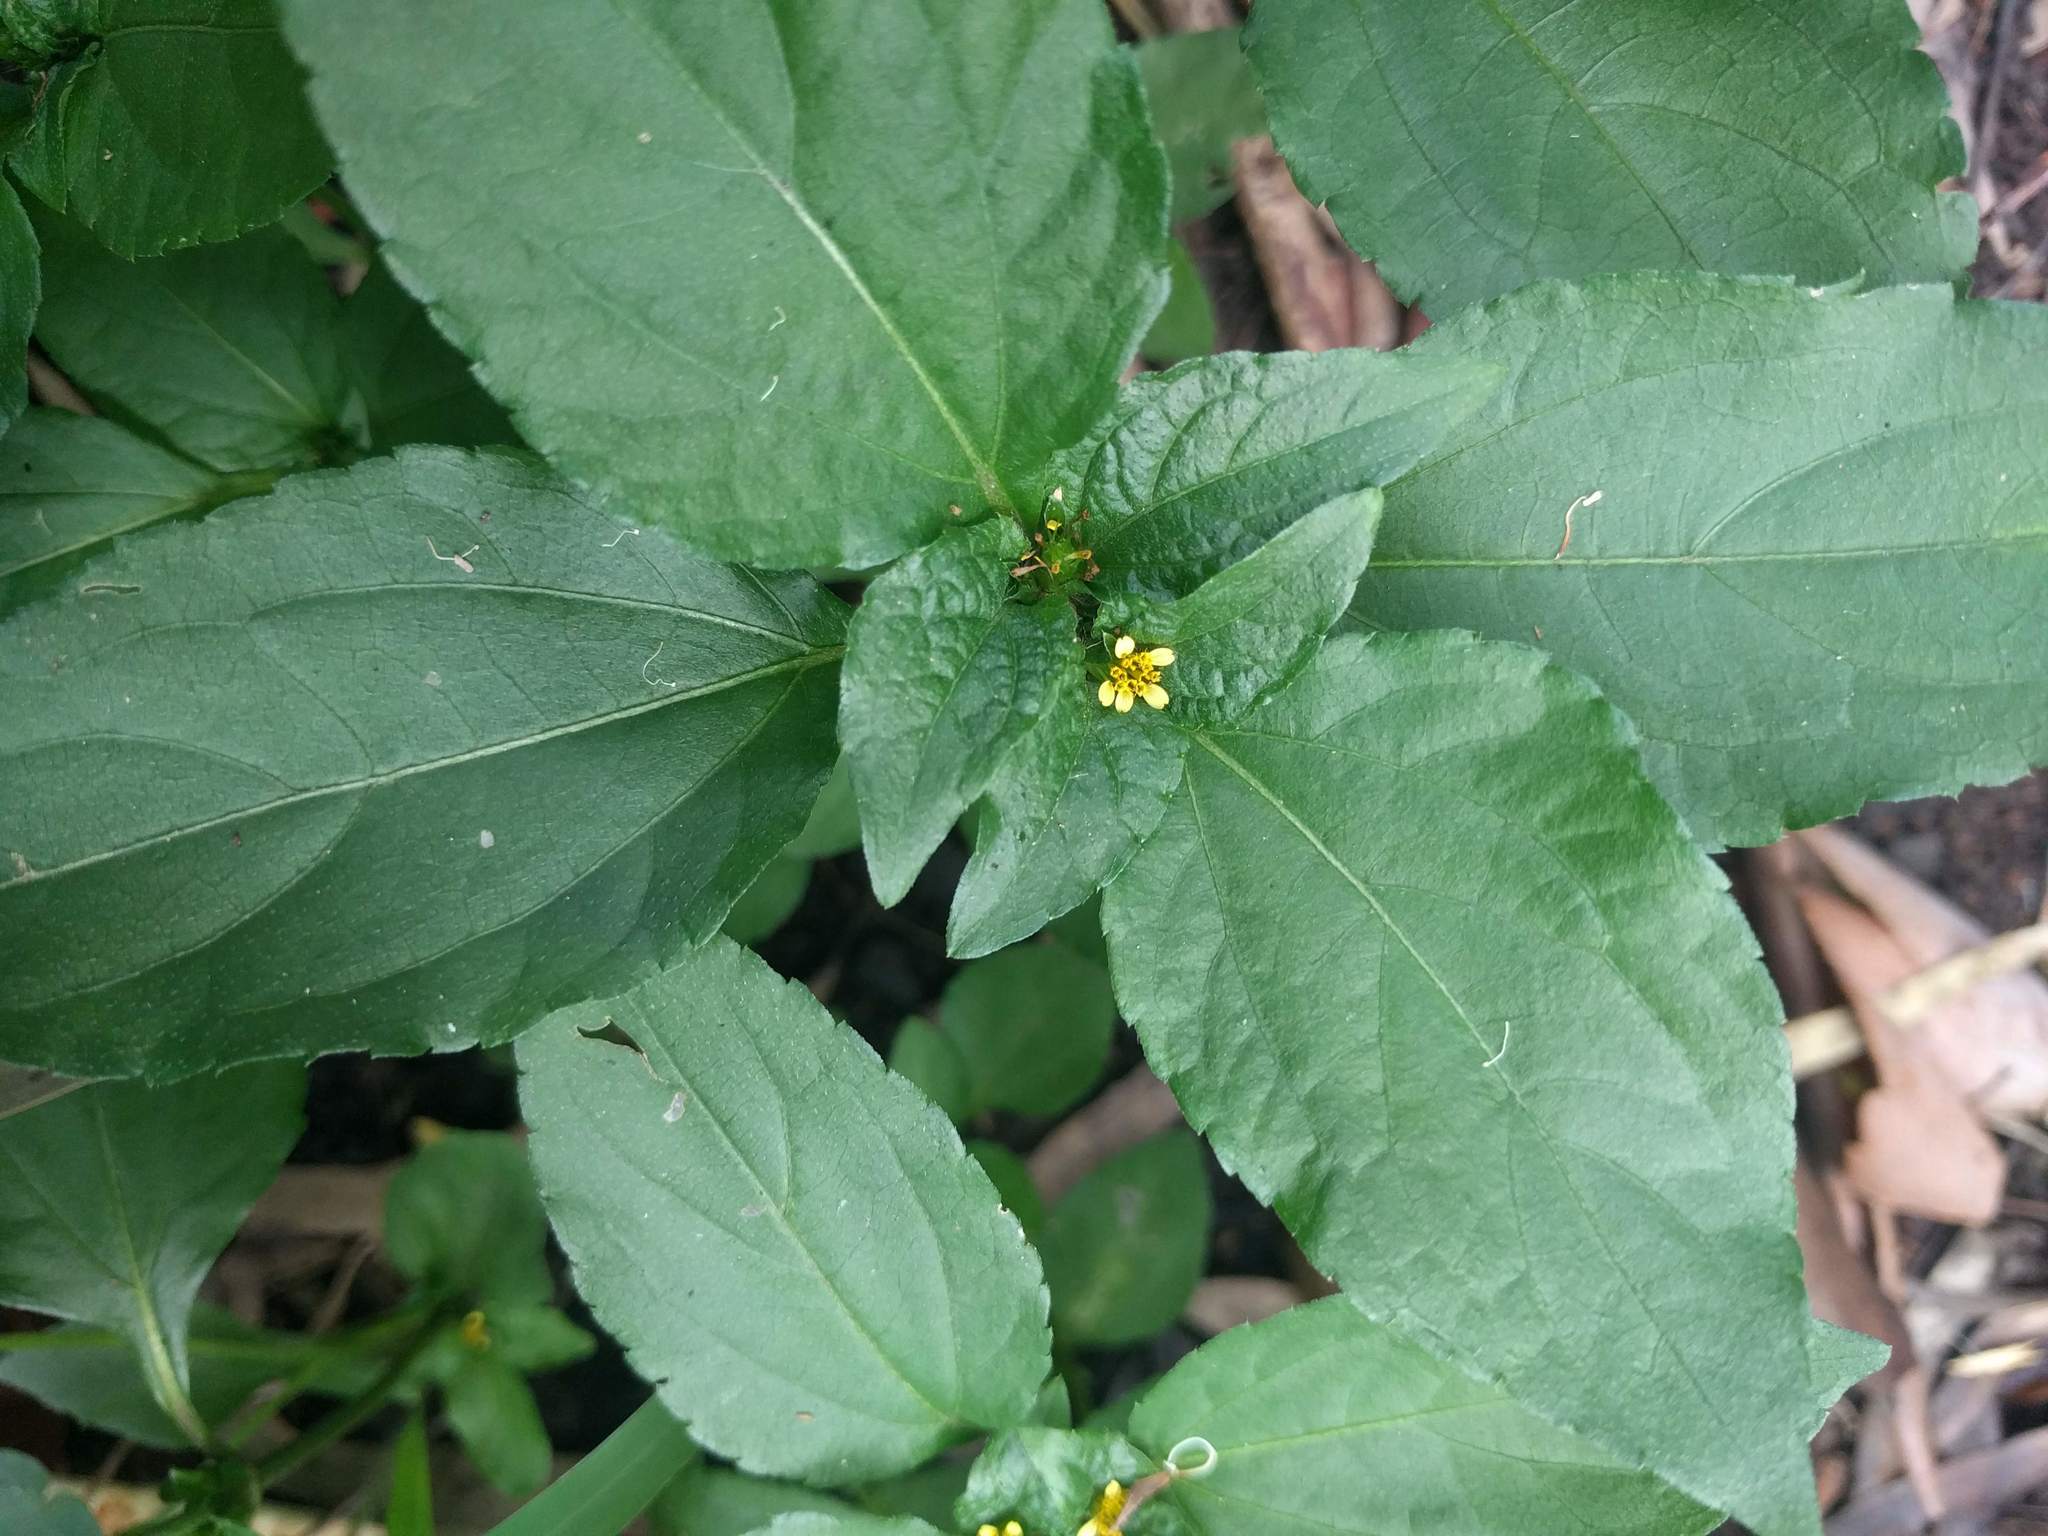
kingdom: Plantae
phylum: Tracheophyta
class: Magnoliopsida
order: Asterales
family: Asteraceae
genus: Synedrella
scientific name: Synedrella nodiflora
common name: Nodeweed
